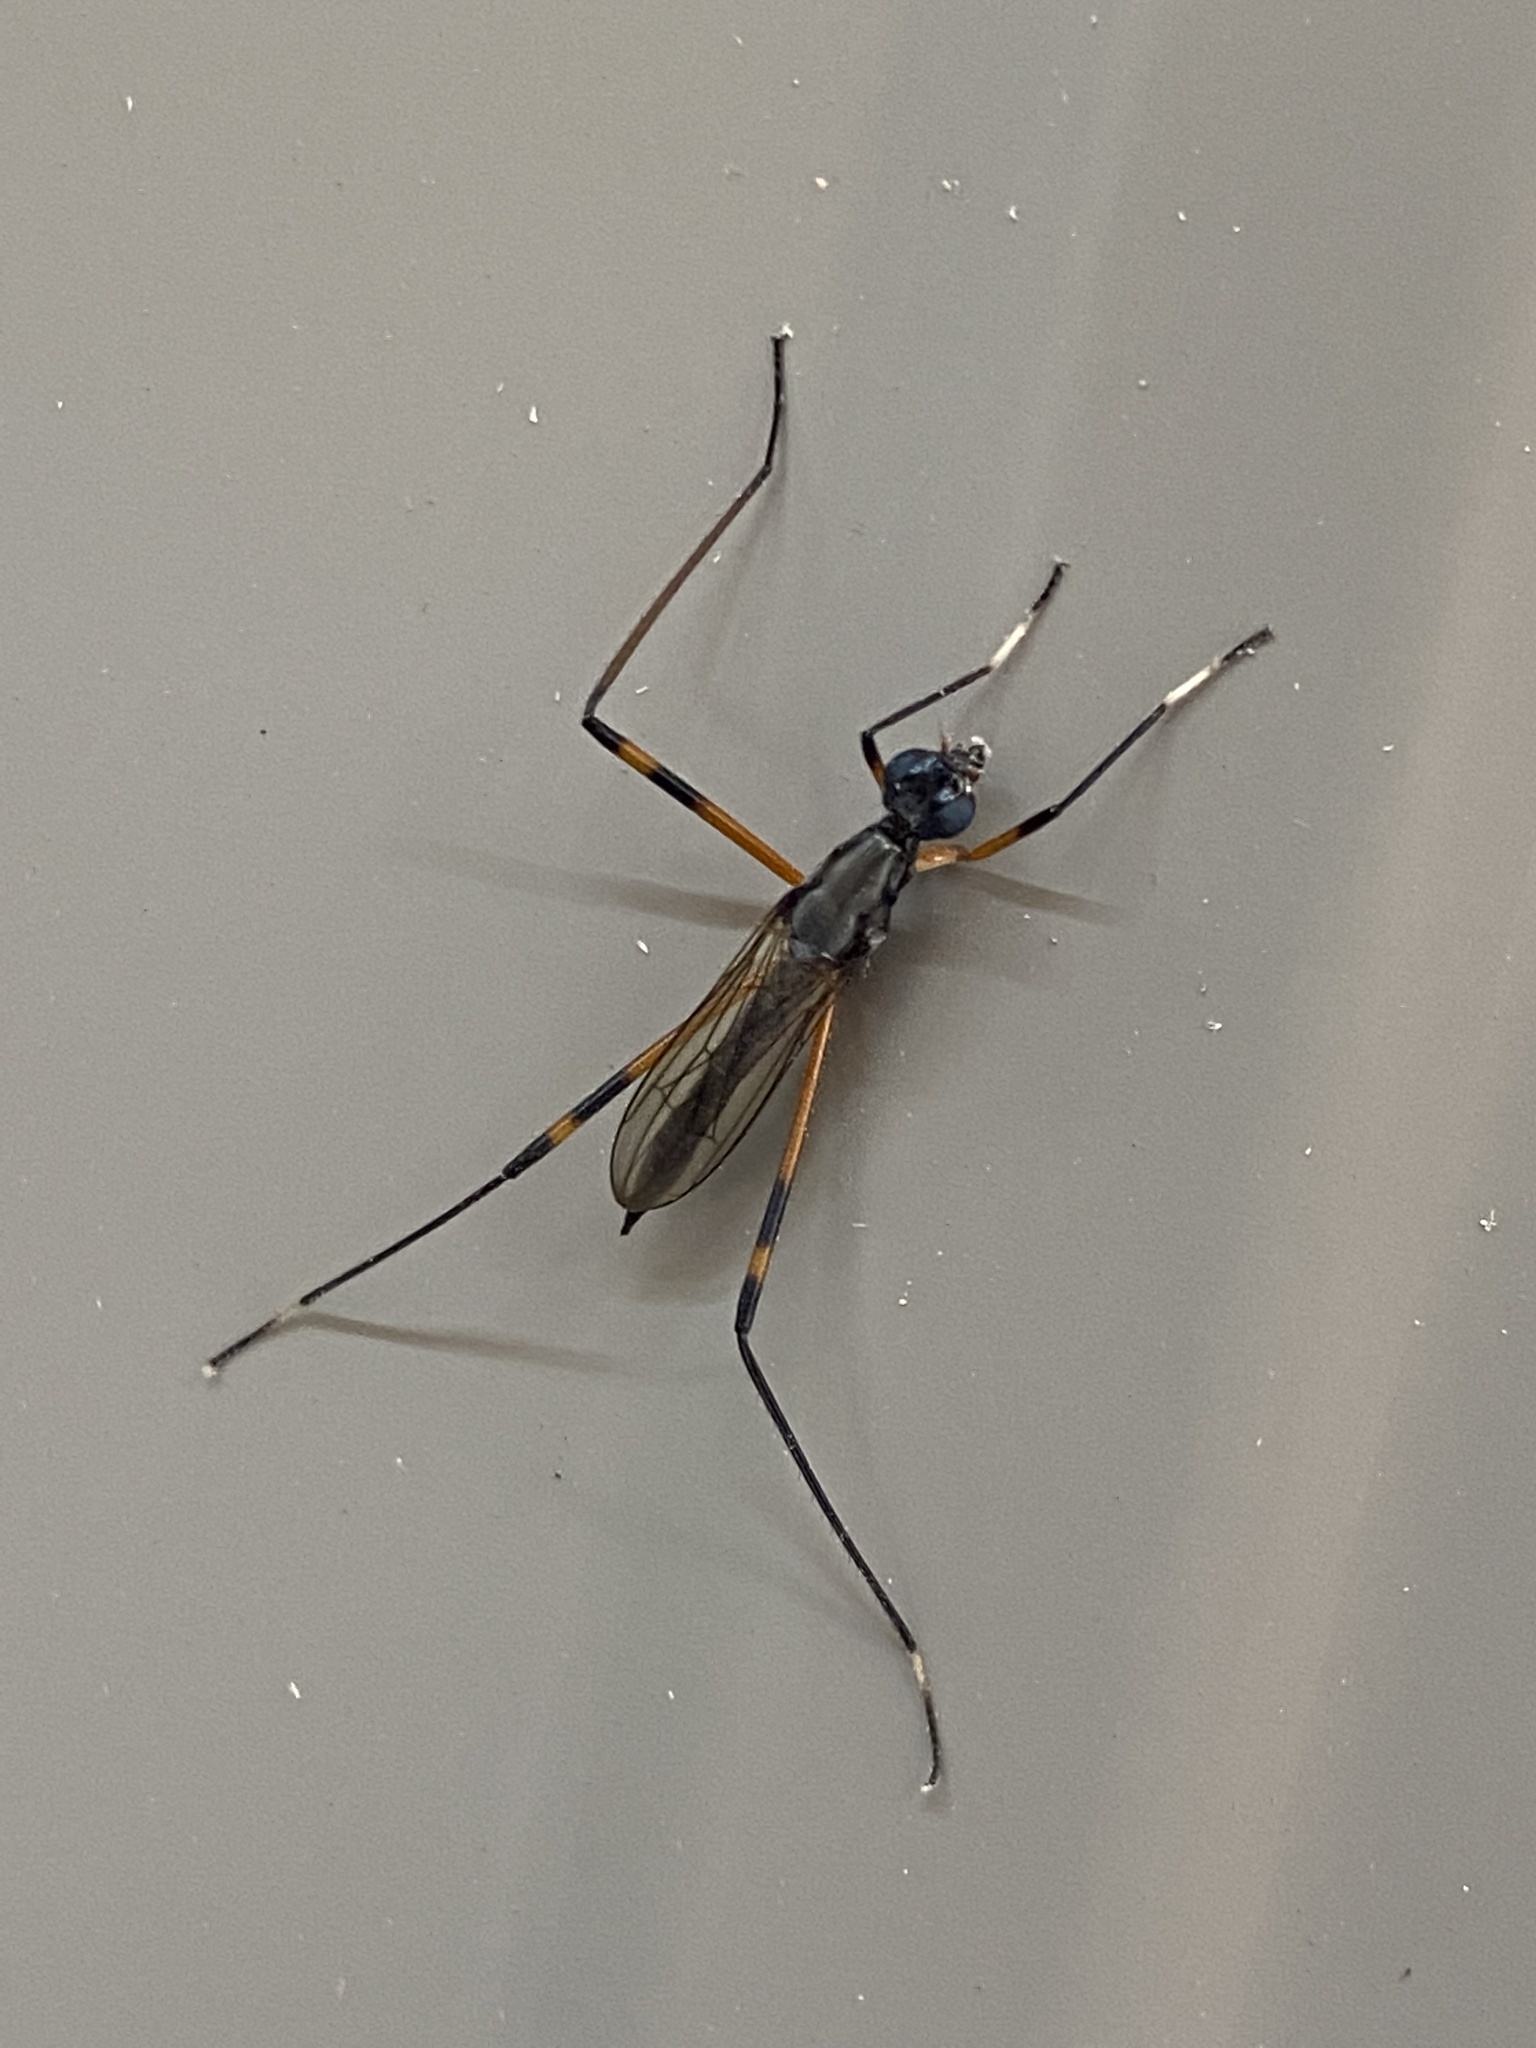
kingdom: Animalia
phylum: Arthropoda
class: Insecta
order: Diptera
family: Micropezidae
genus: Calobatina
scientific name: Calobatina geometra
